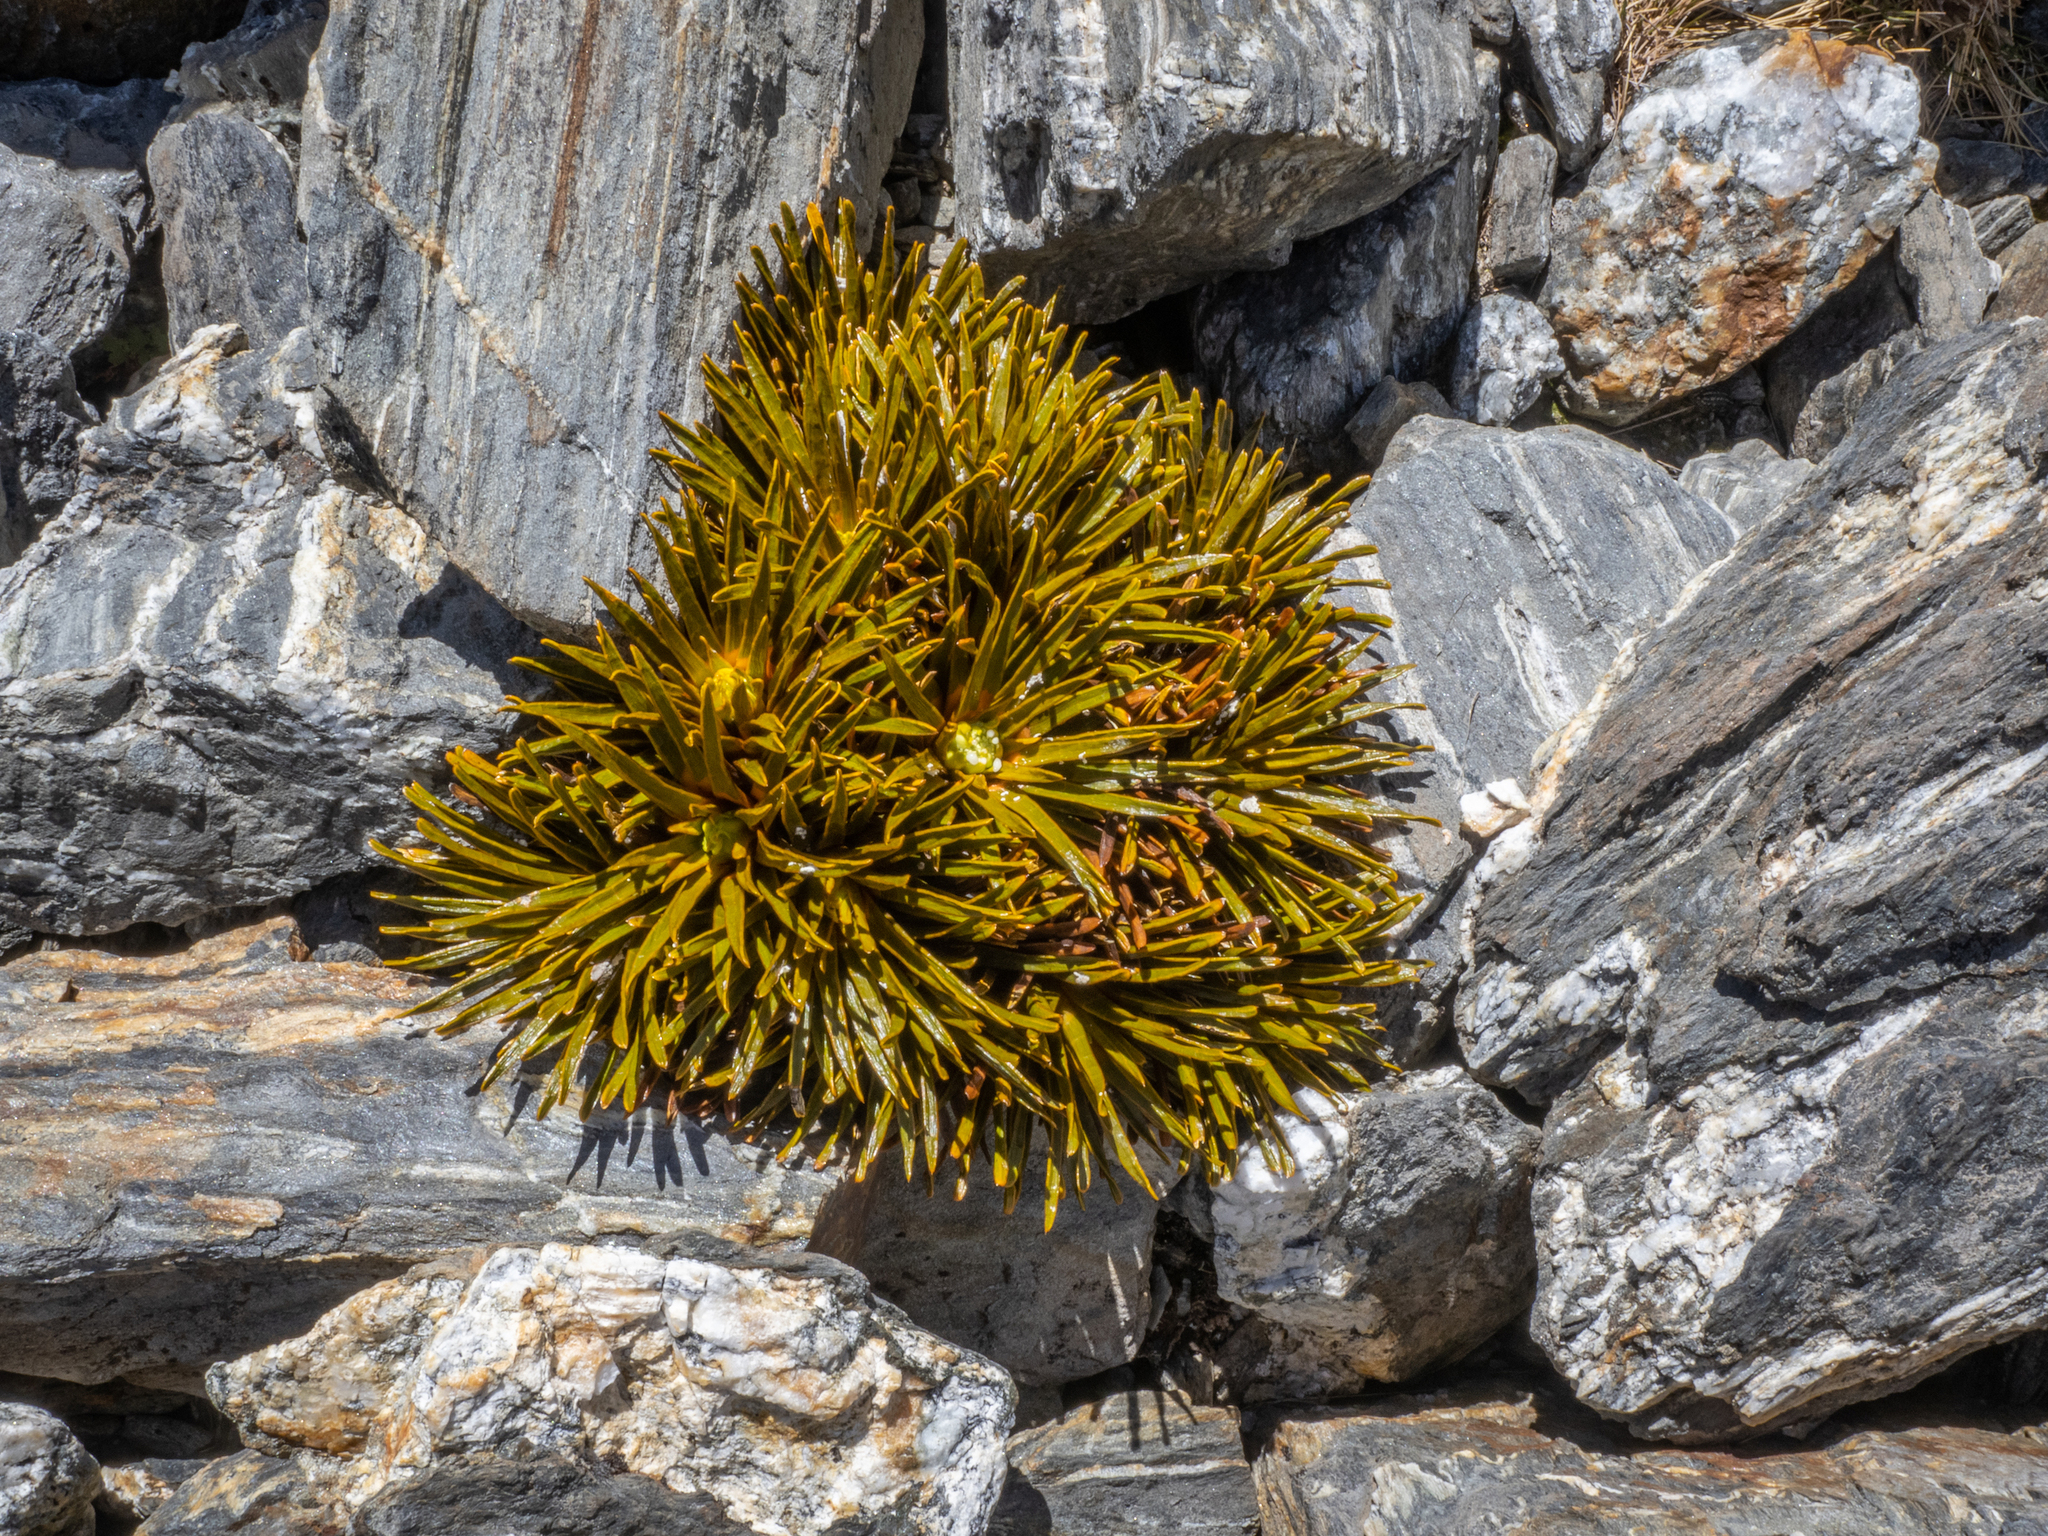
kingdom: Plantae
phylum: Tracheophyta
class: Magnoliopsida
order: Apiales
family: Apiaceae
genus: Aciphylla
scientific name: Aciphylla simplex
